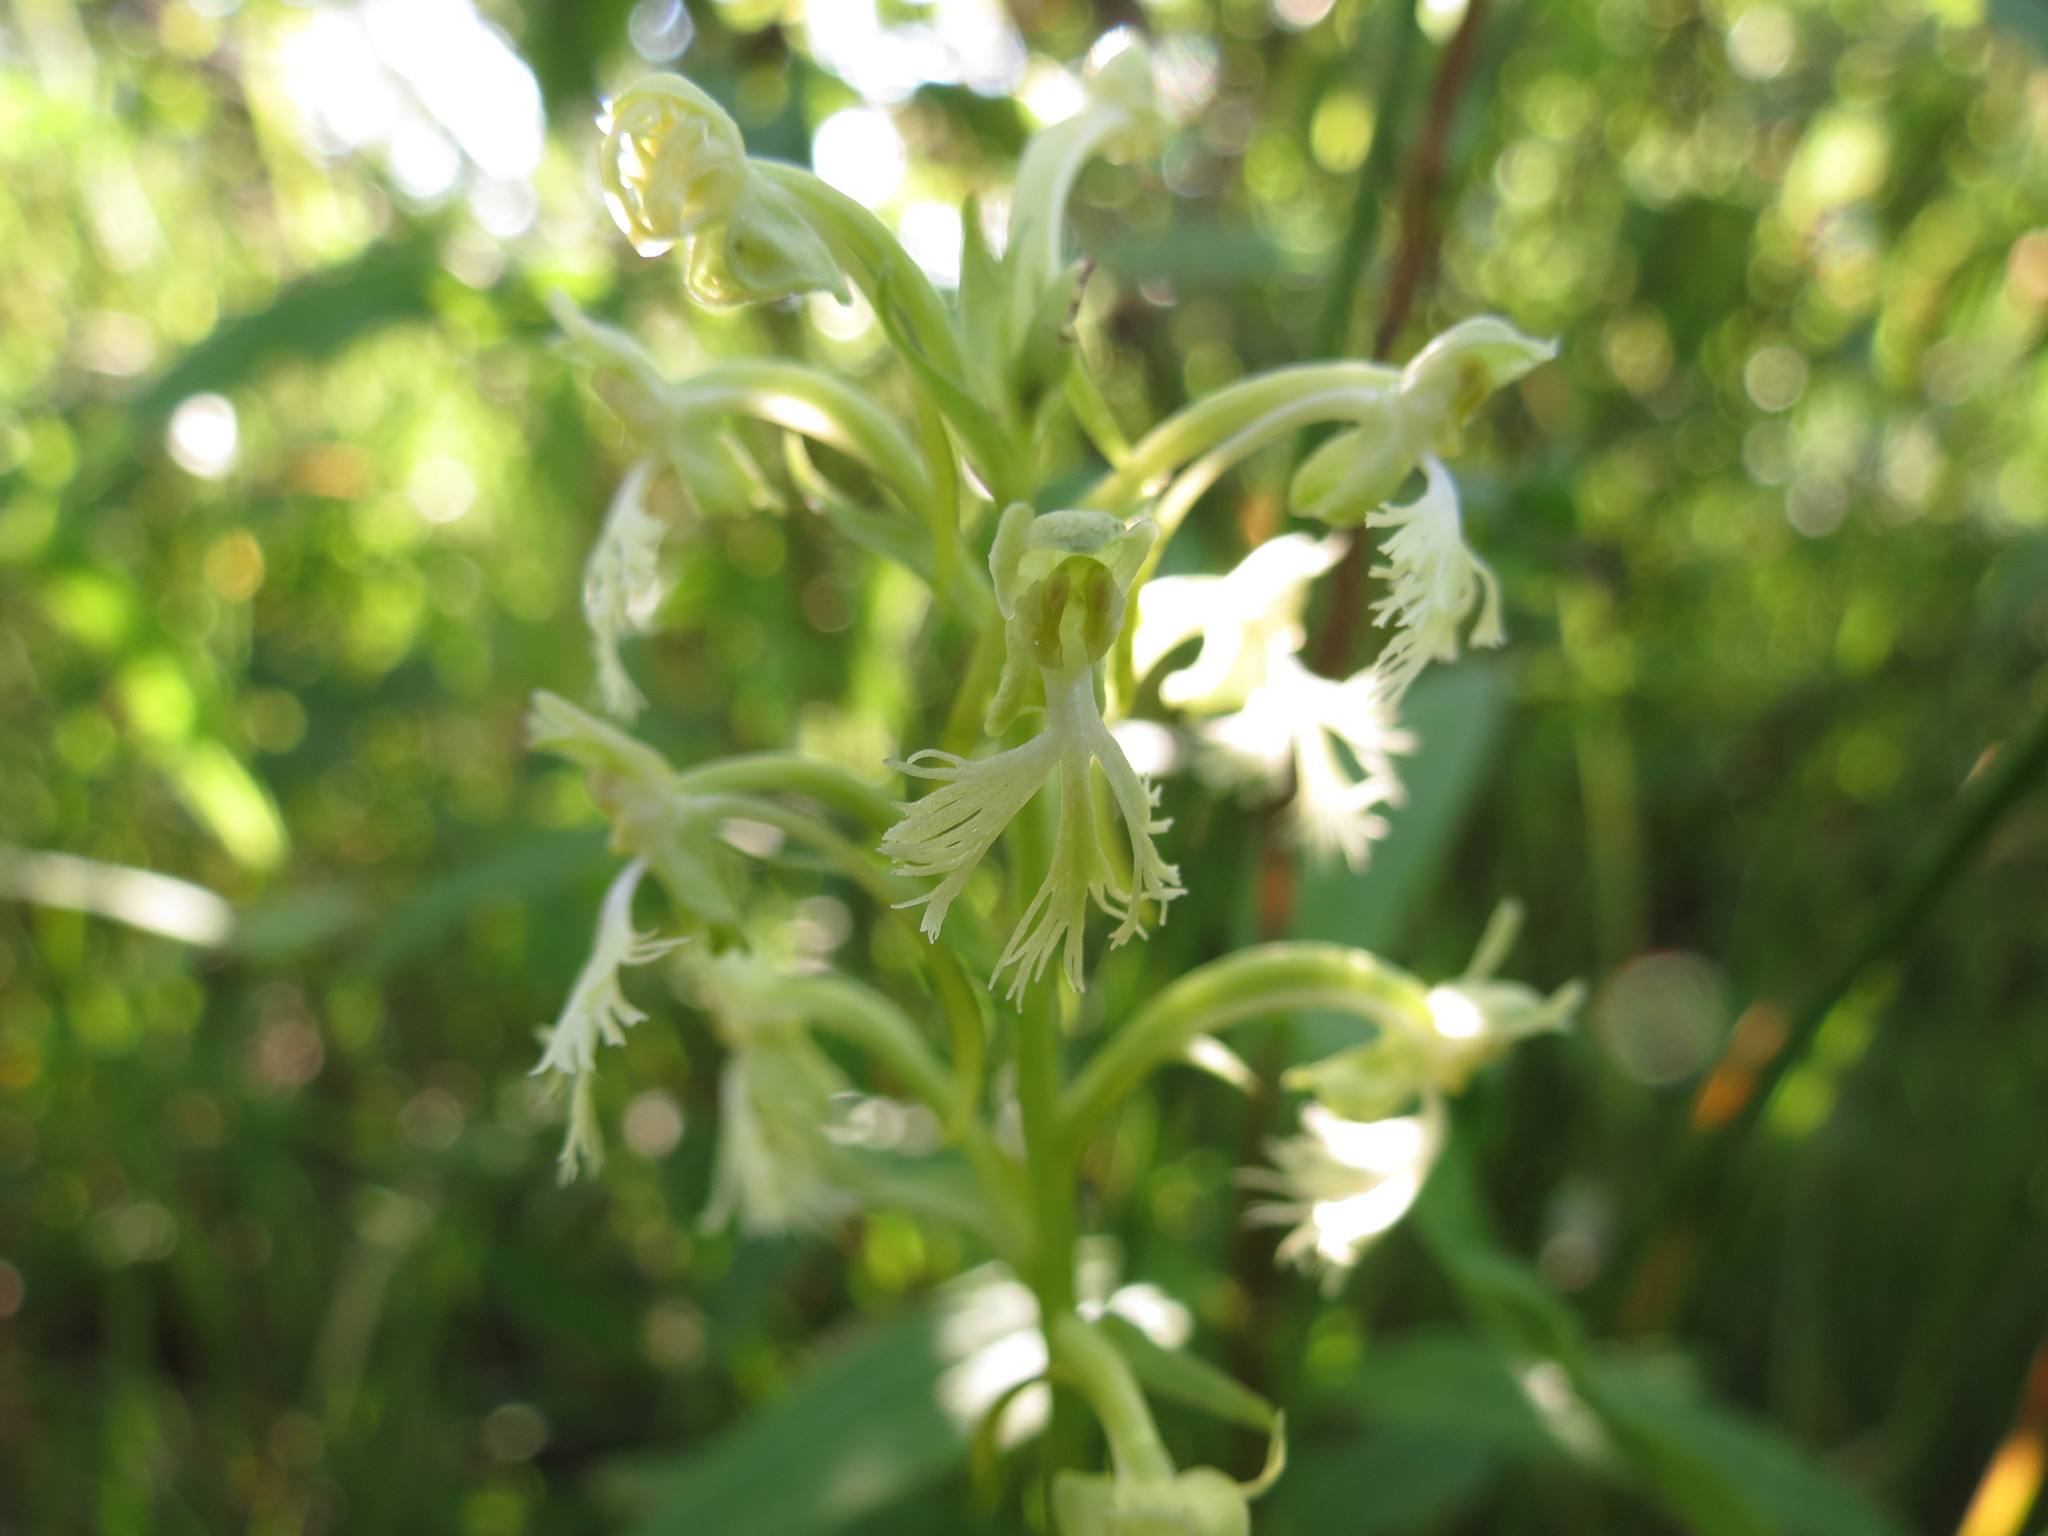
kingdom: Plantae
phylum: Tracheophyta
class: Liliopsida
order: Asparagales
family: Orchidaceae
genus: Platanthera
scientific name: Platanthera lacera
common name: Green fringed orchid
